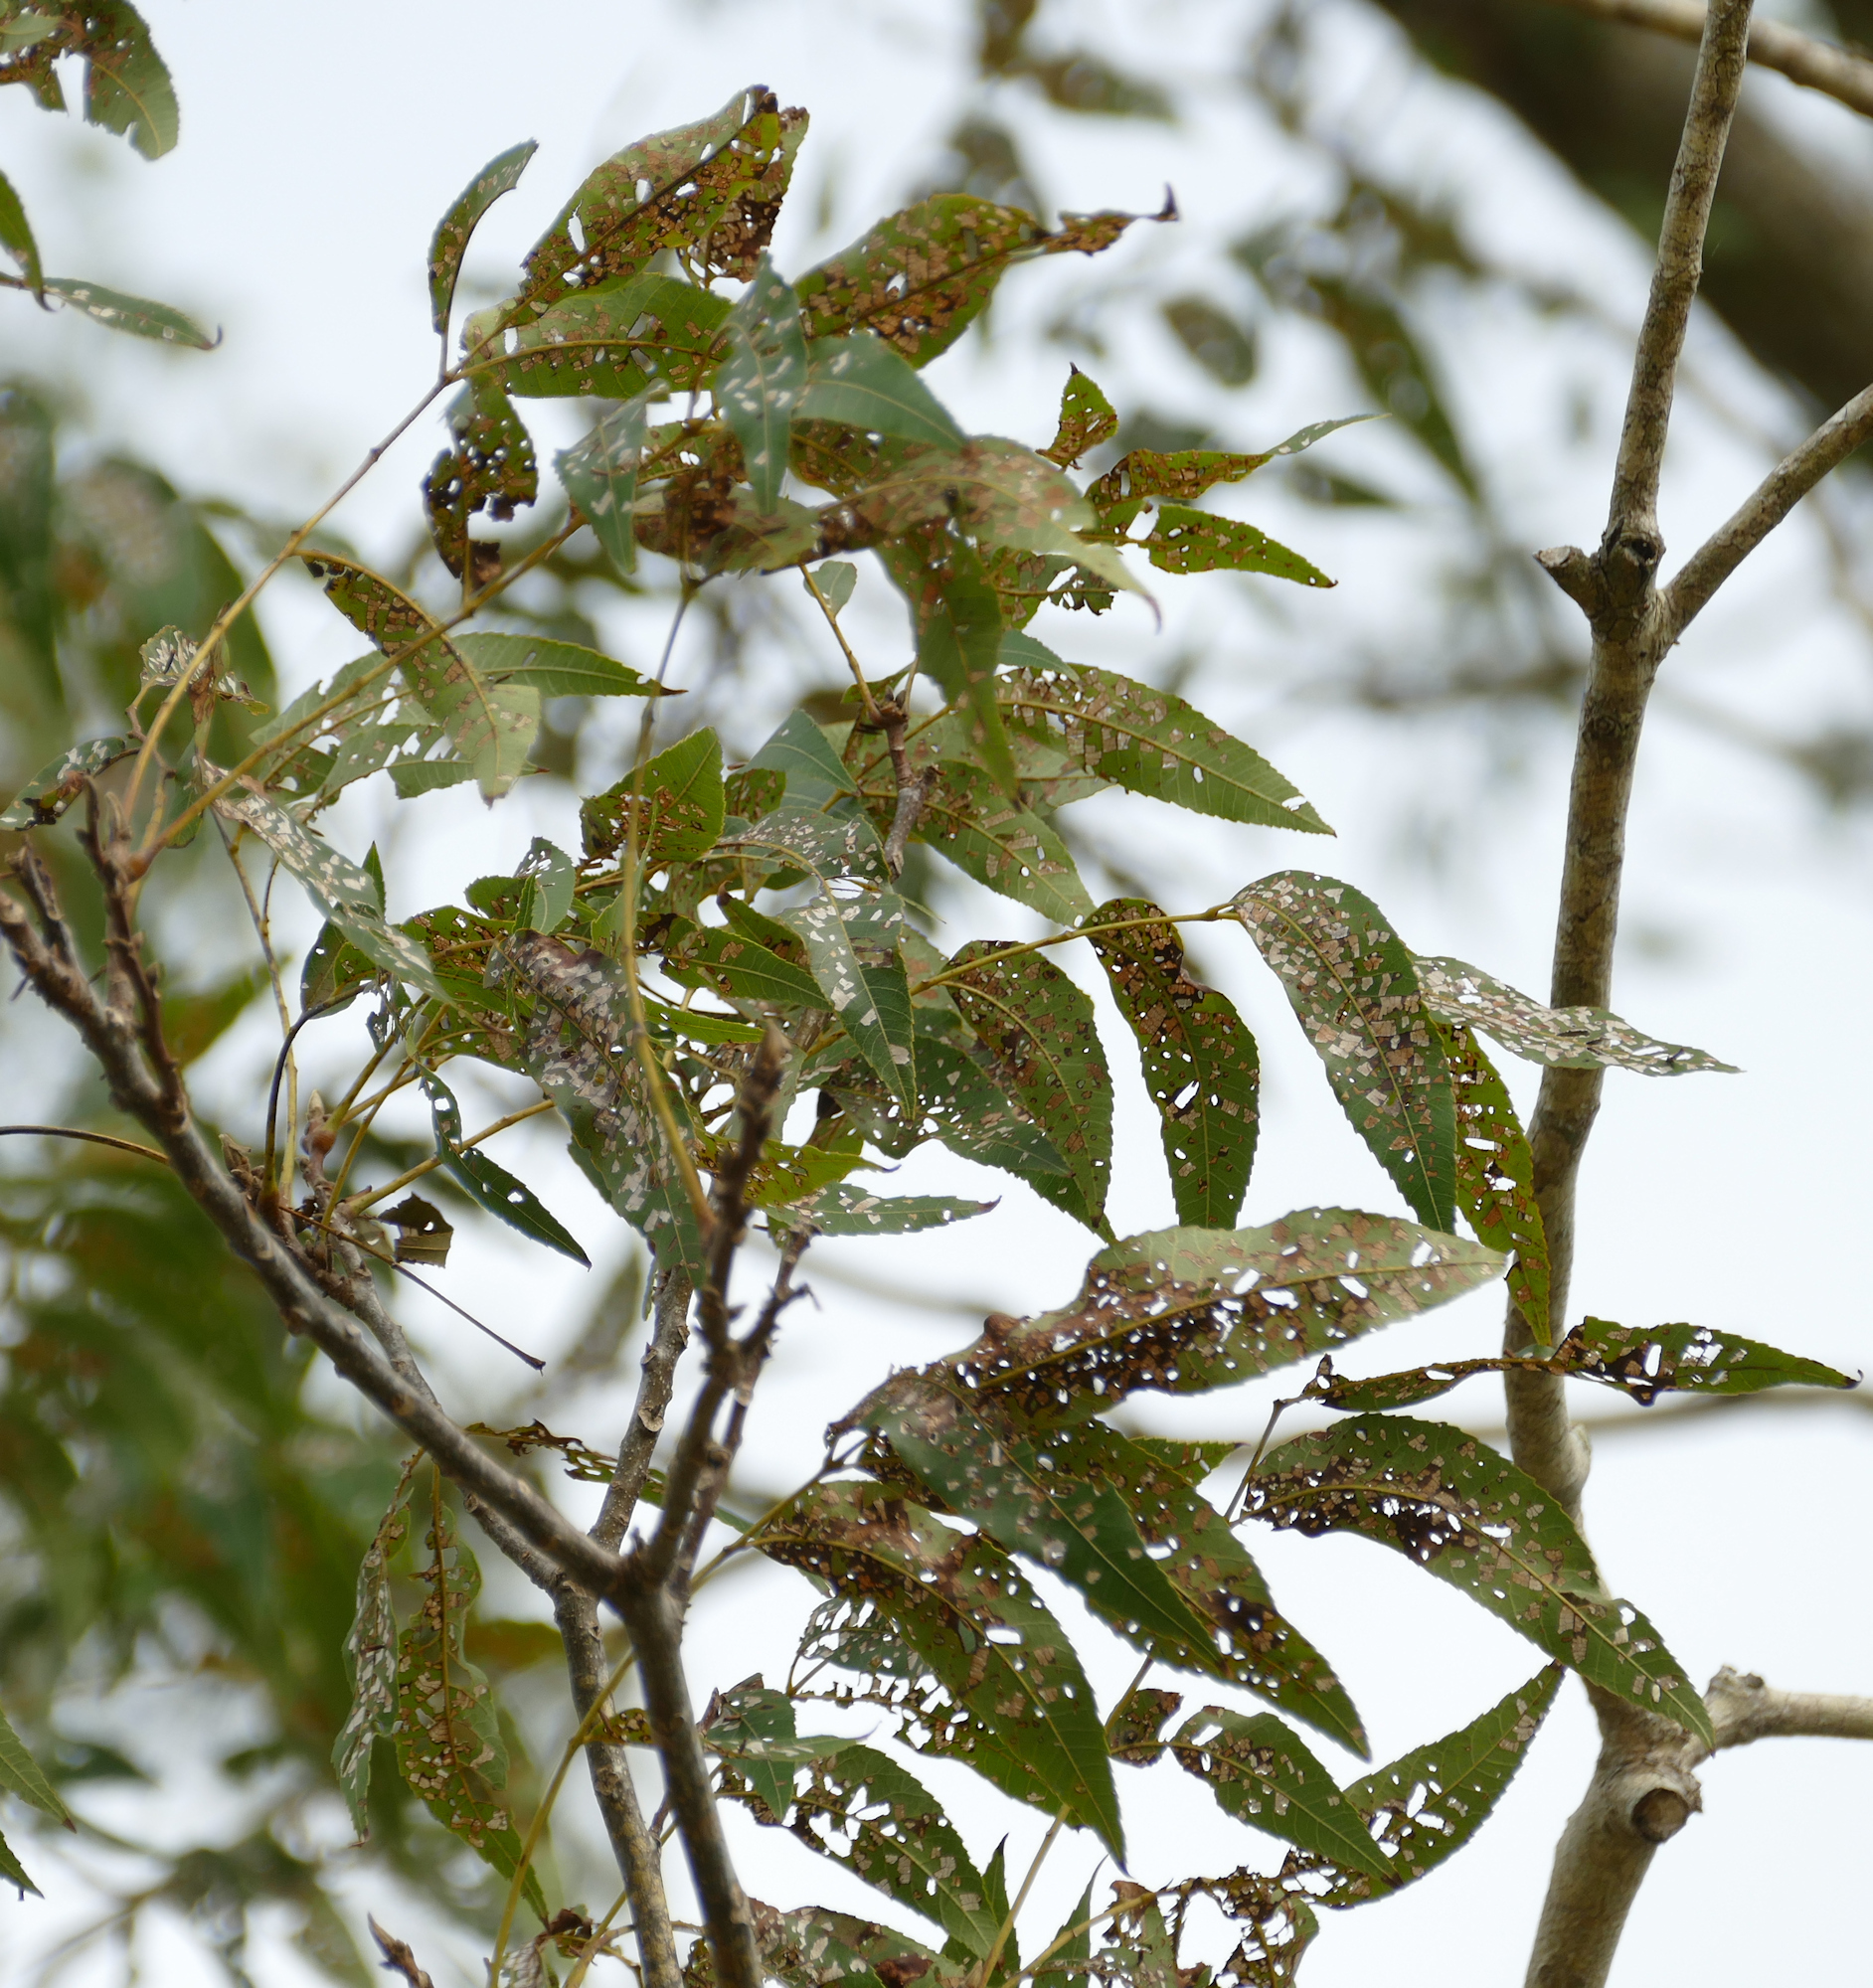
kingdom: Plantae
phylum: Tracheophyta
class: Magnoliopsida
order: Fagales
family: Juglandaceae
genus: Carya
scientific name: Carya illinoinensis
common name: Pecan
